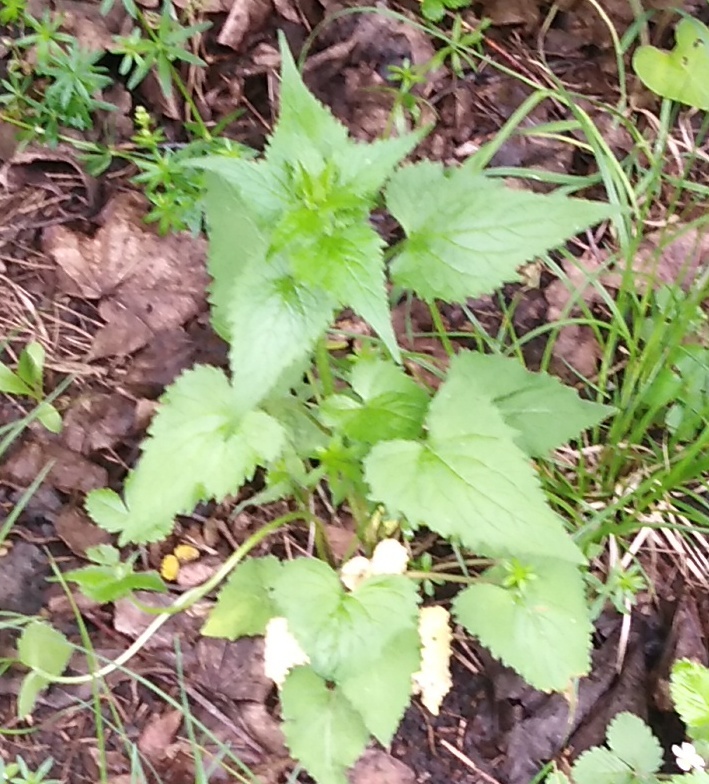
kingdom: Plantae
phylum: Tracheophyta
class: Magnoliopsida
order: Asterales
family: Campanulaceae
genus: Campanula
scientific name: Campanula trachelium
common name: Nettle-leaved bellflower
